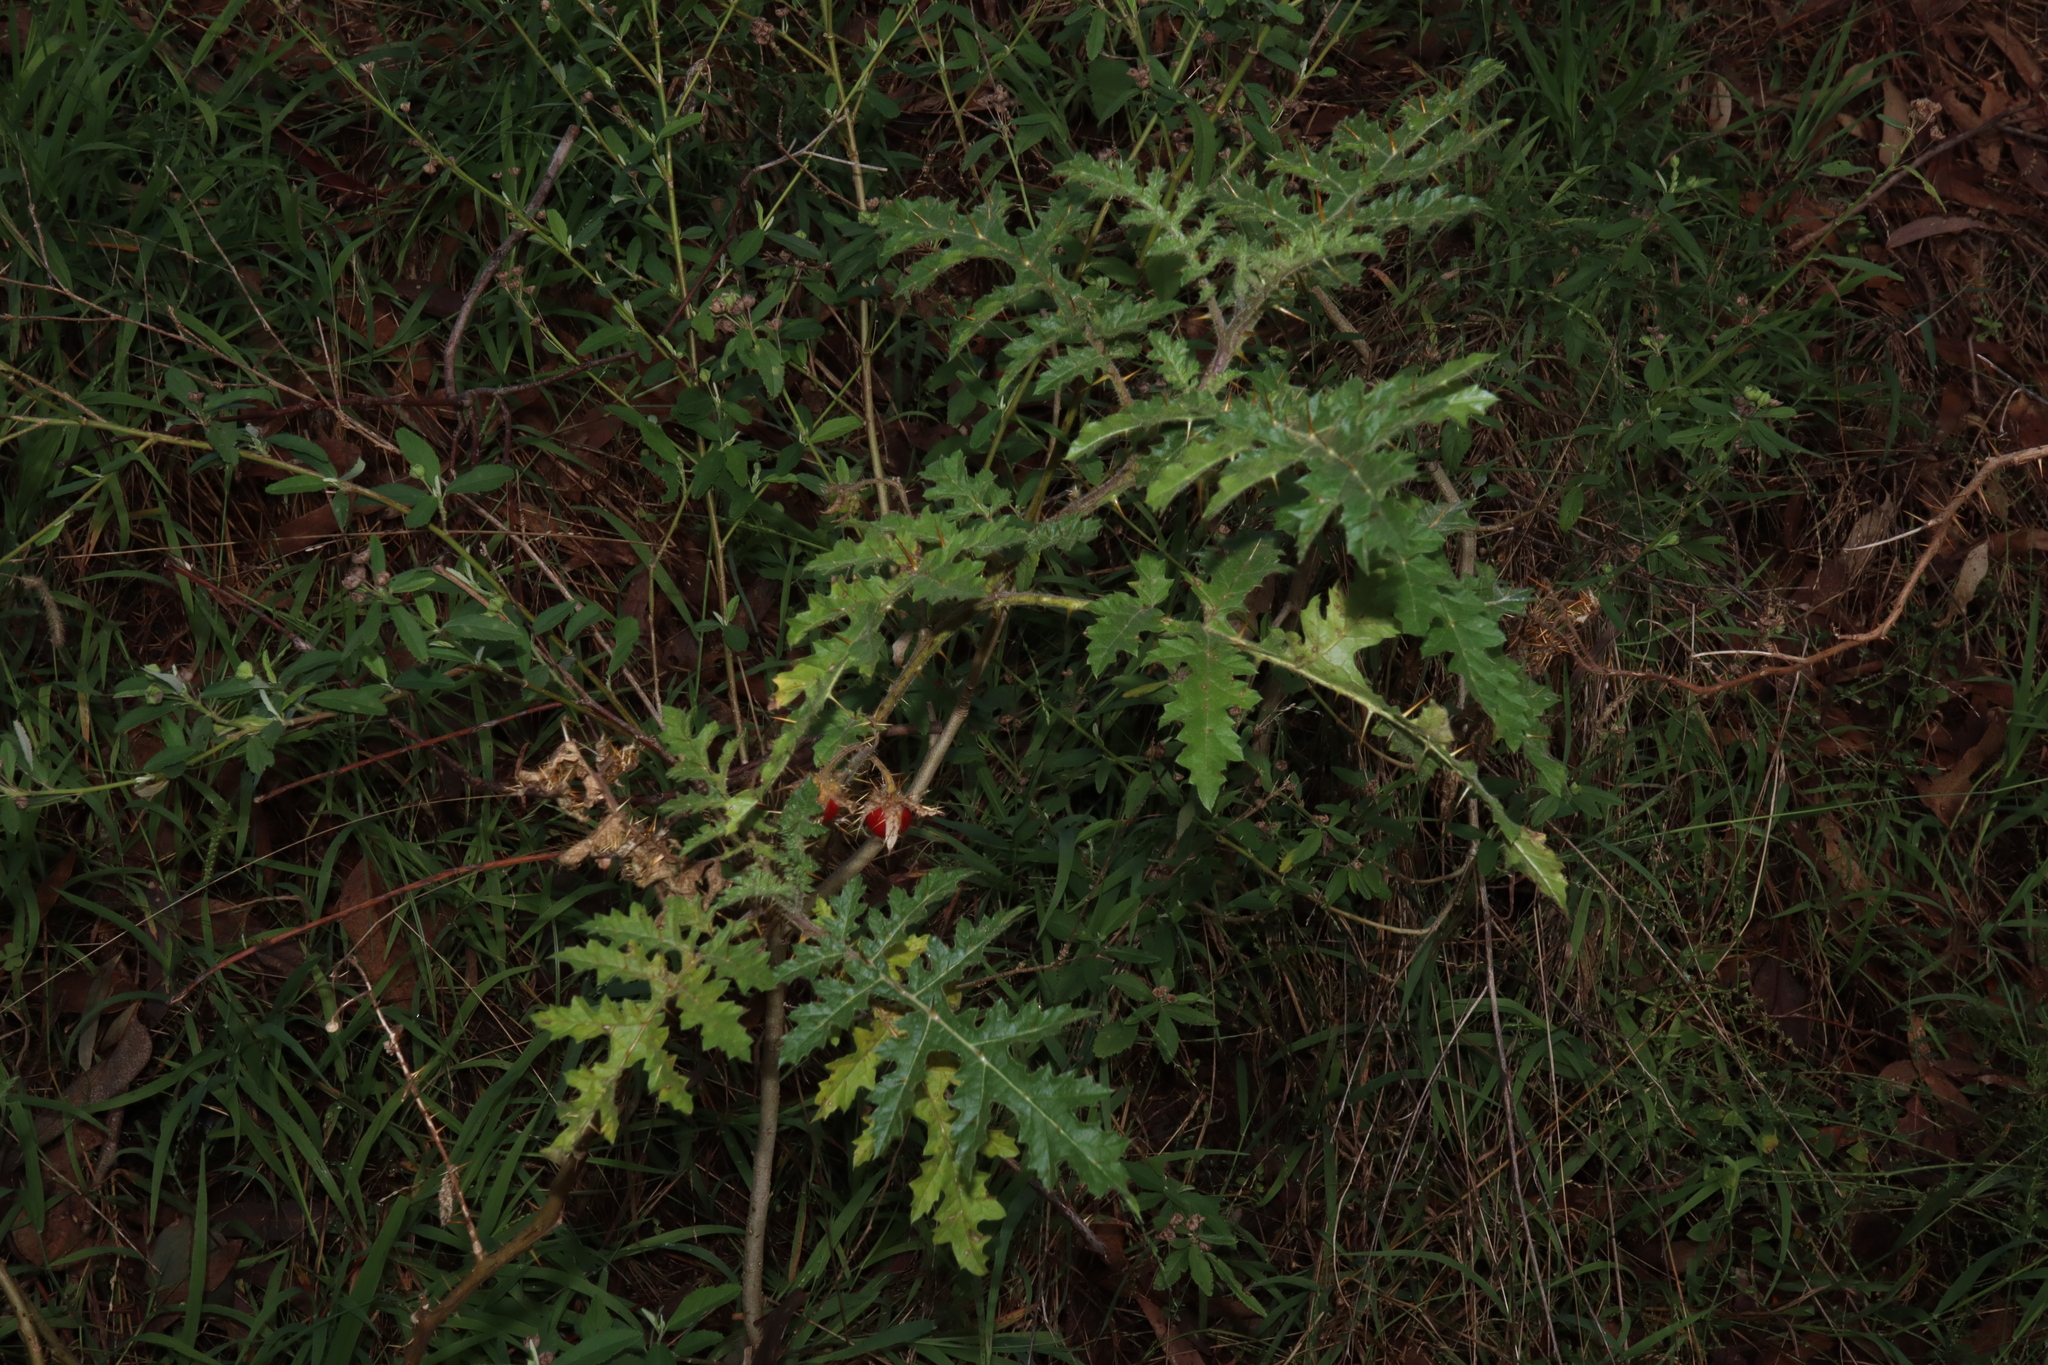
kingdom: Plantae
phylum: Tracheophyta
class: Magnoliopsida
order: Solanales
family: Solanaceae
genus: Solanum
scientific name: Solanum sisymbriifolium
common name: Red buffalo-bur
